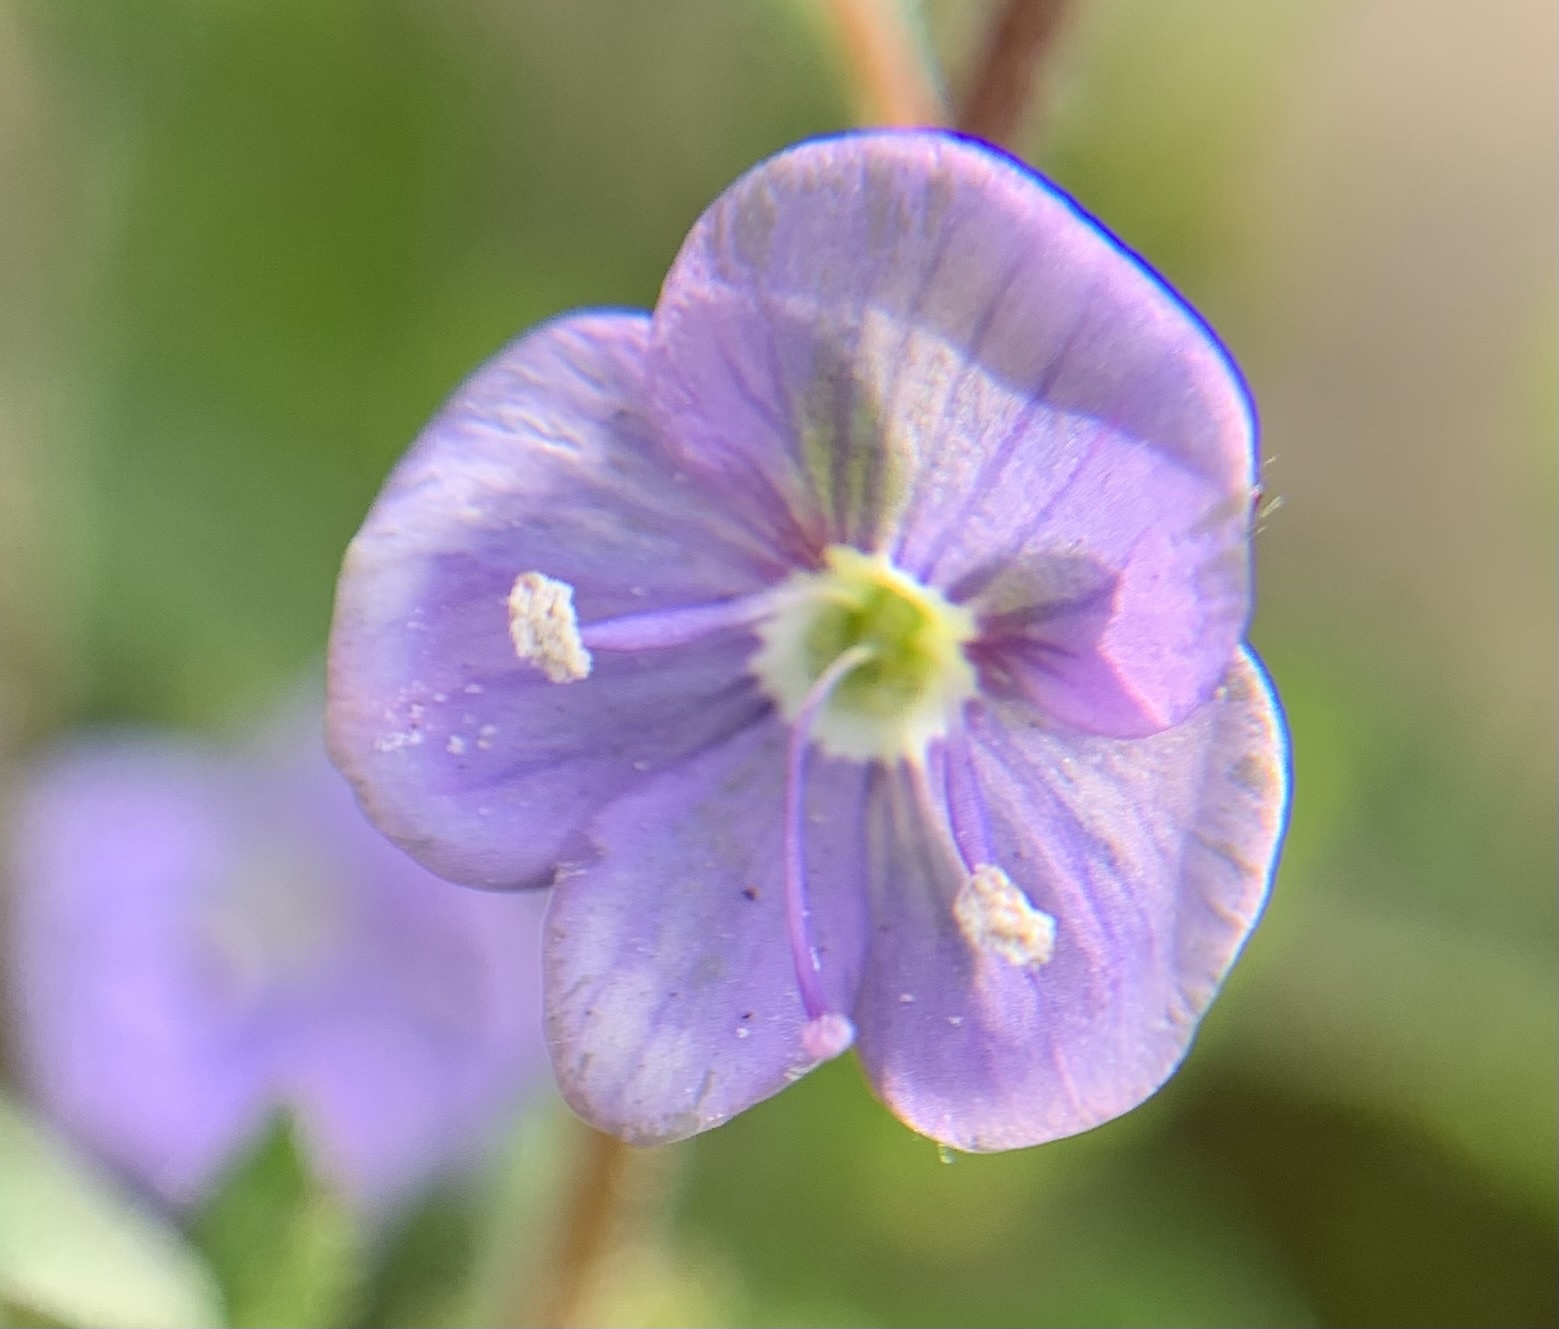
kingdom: Plantae
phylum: Tracheophyta
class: Magnoliopsida
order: Lamiales
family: Plantaginaceae
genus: Veronica
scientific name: Veronica chamaedrys
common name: Germander speedwell
